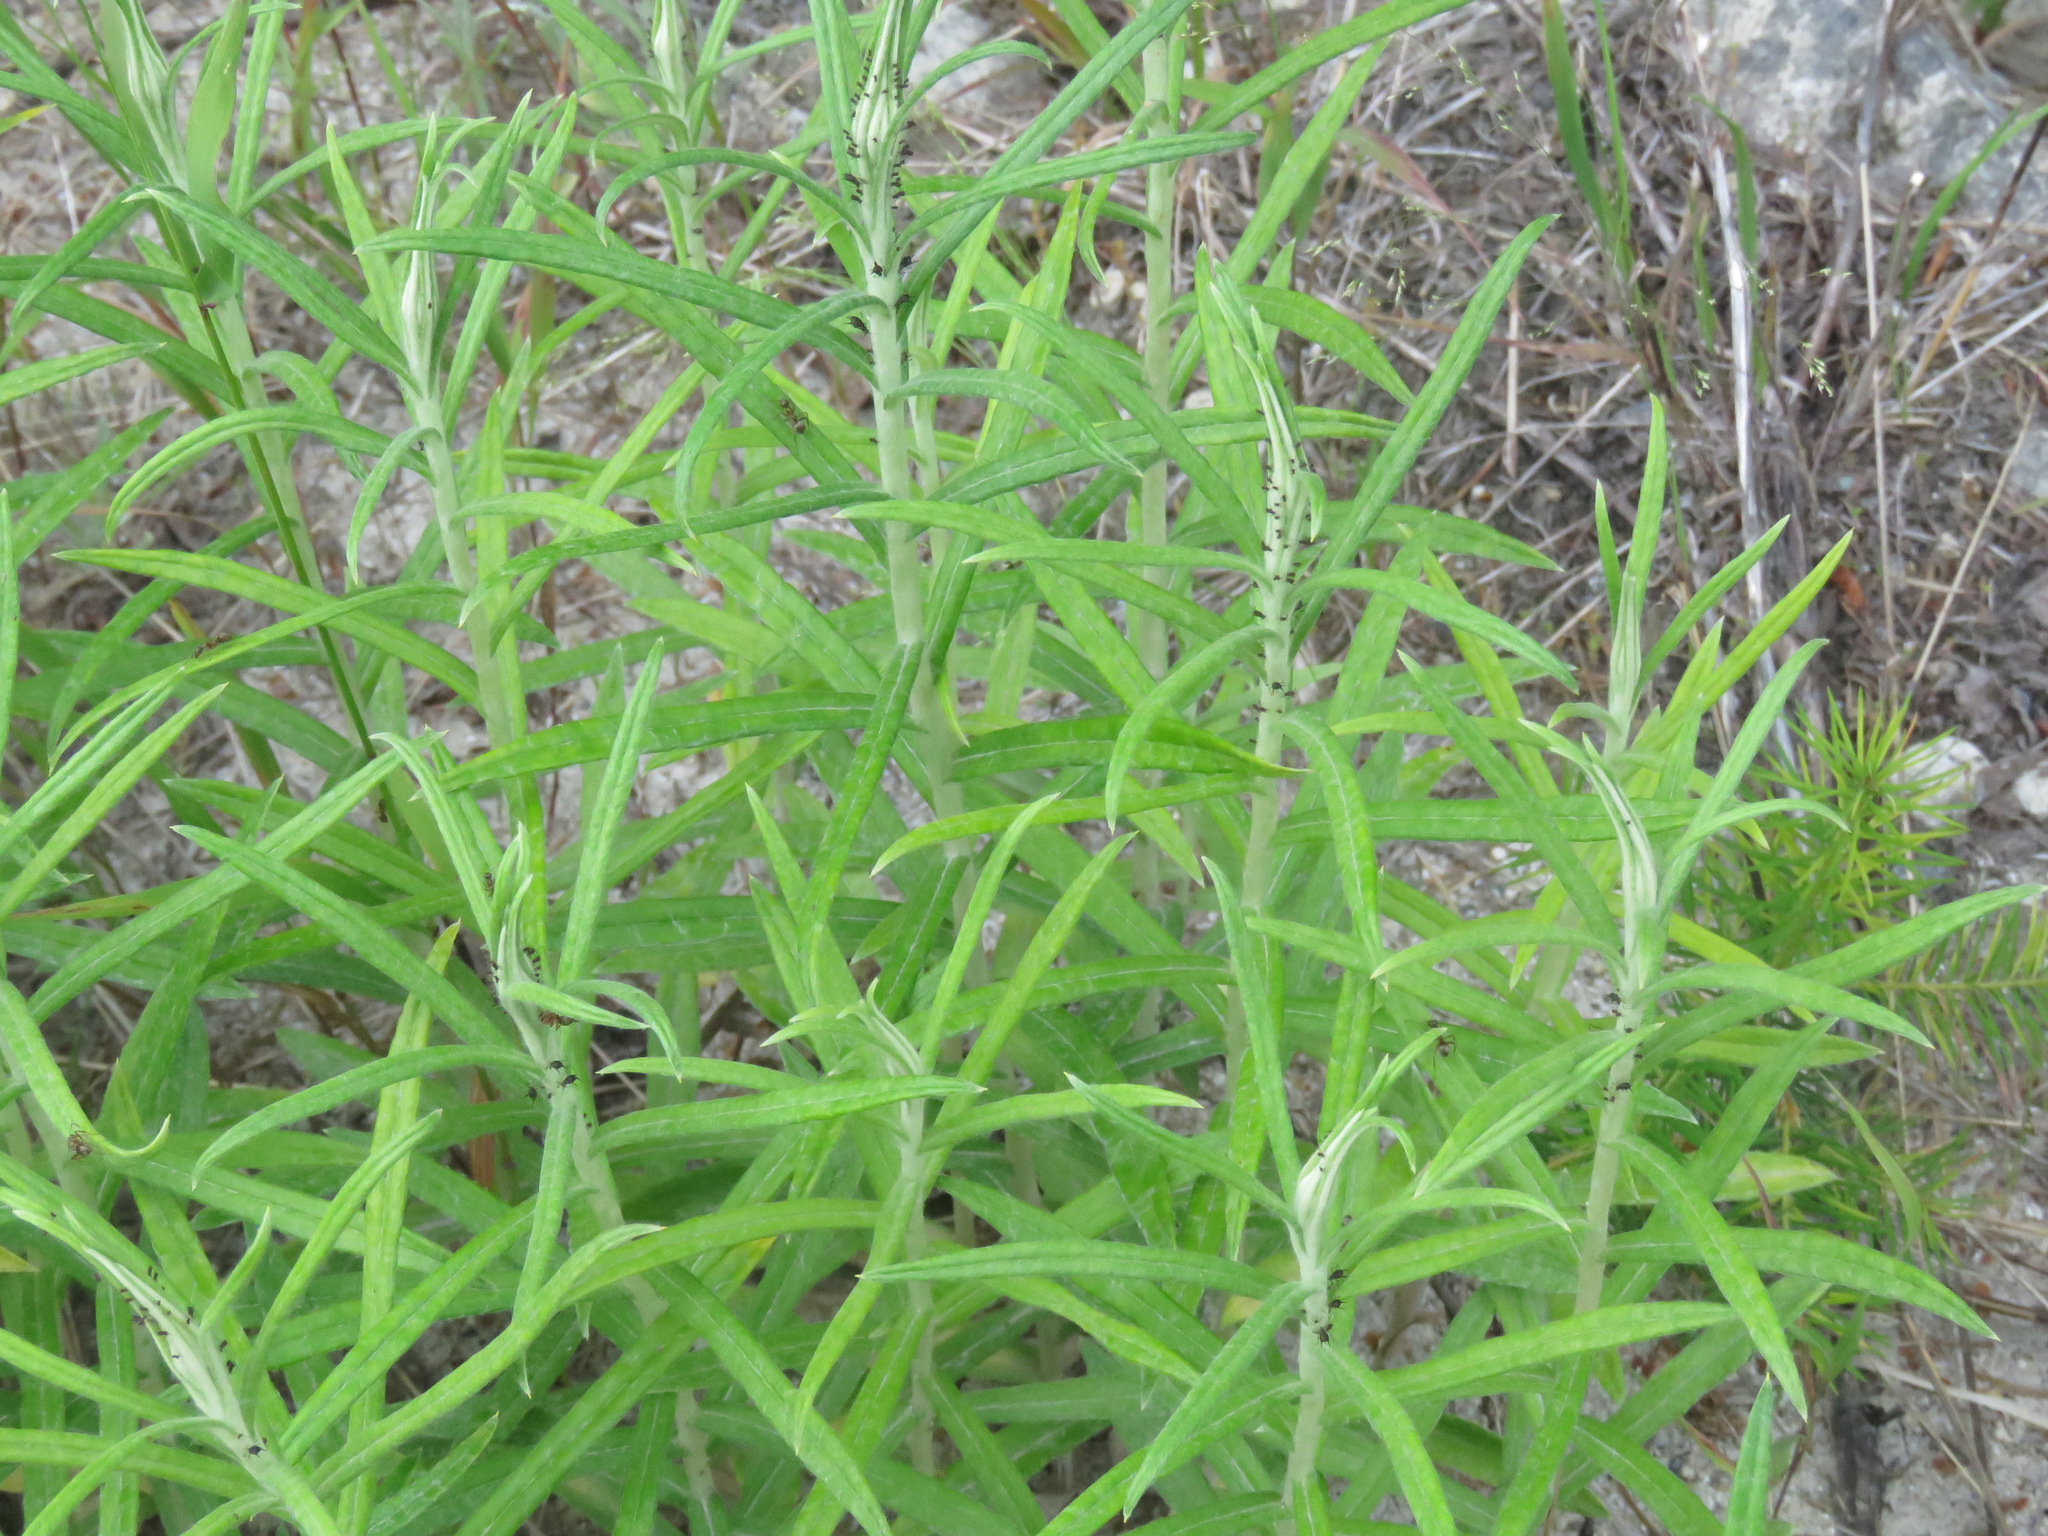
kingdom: Plantae
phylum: Tracheophyta
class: Magnoliopsida
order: Asterales
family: Asteraceae
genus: Anaphalis
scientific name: Anaphalis margaritacea
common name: Pearly everlasting
